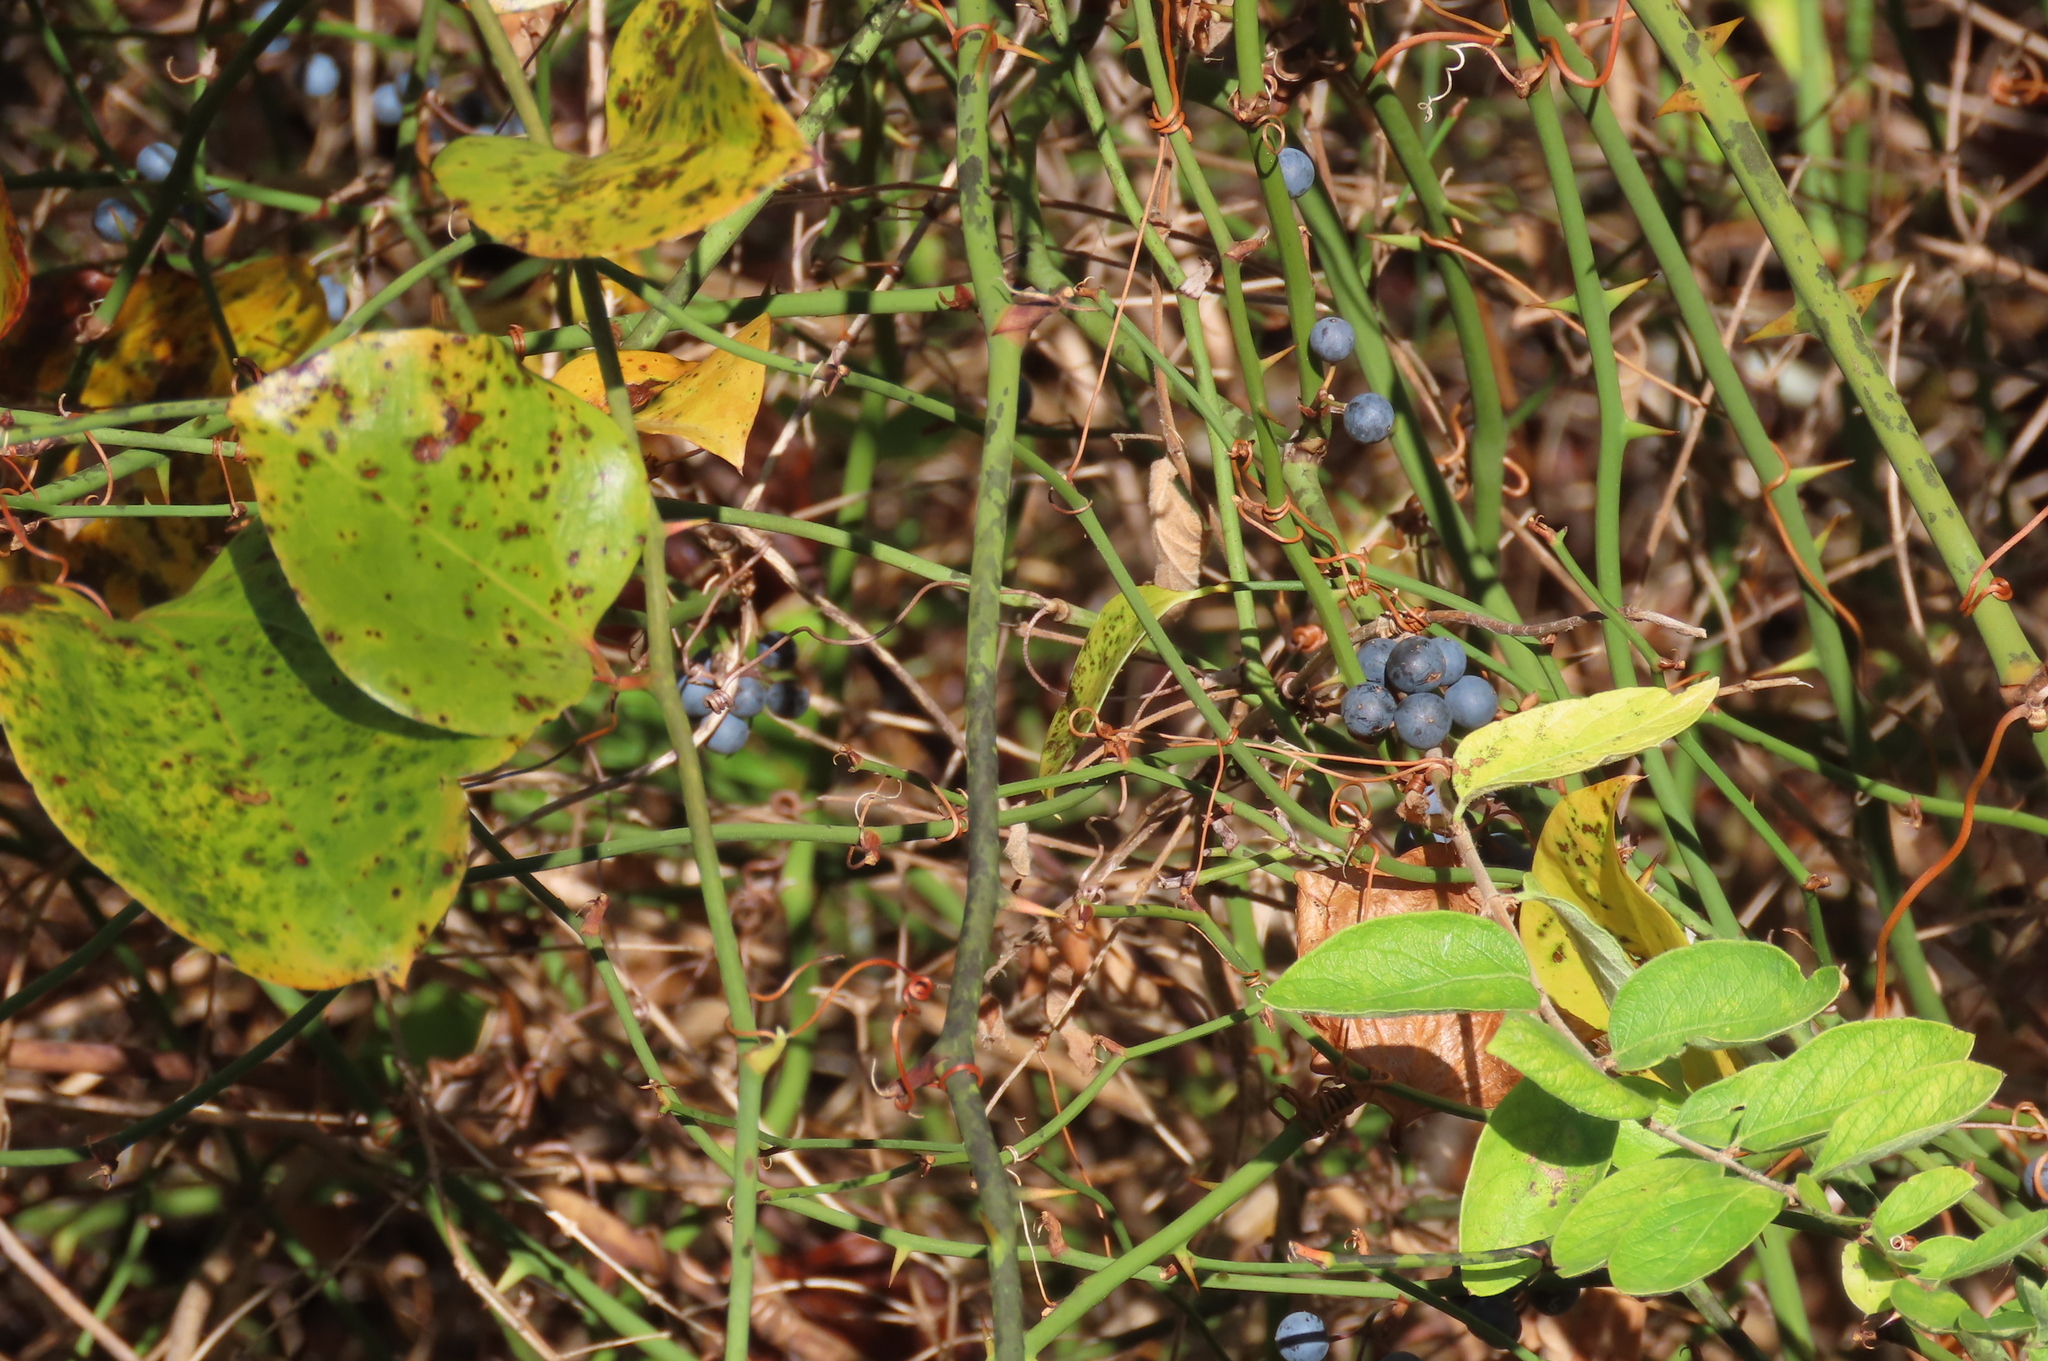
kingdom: Plantae
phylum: Tracheophyta
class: Liliopsida
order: Liliales
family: Smilacaceae
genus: Smilax
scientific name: Smilax rotundifolia
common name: Bullbriar
